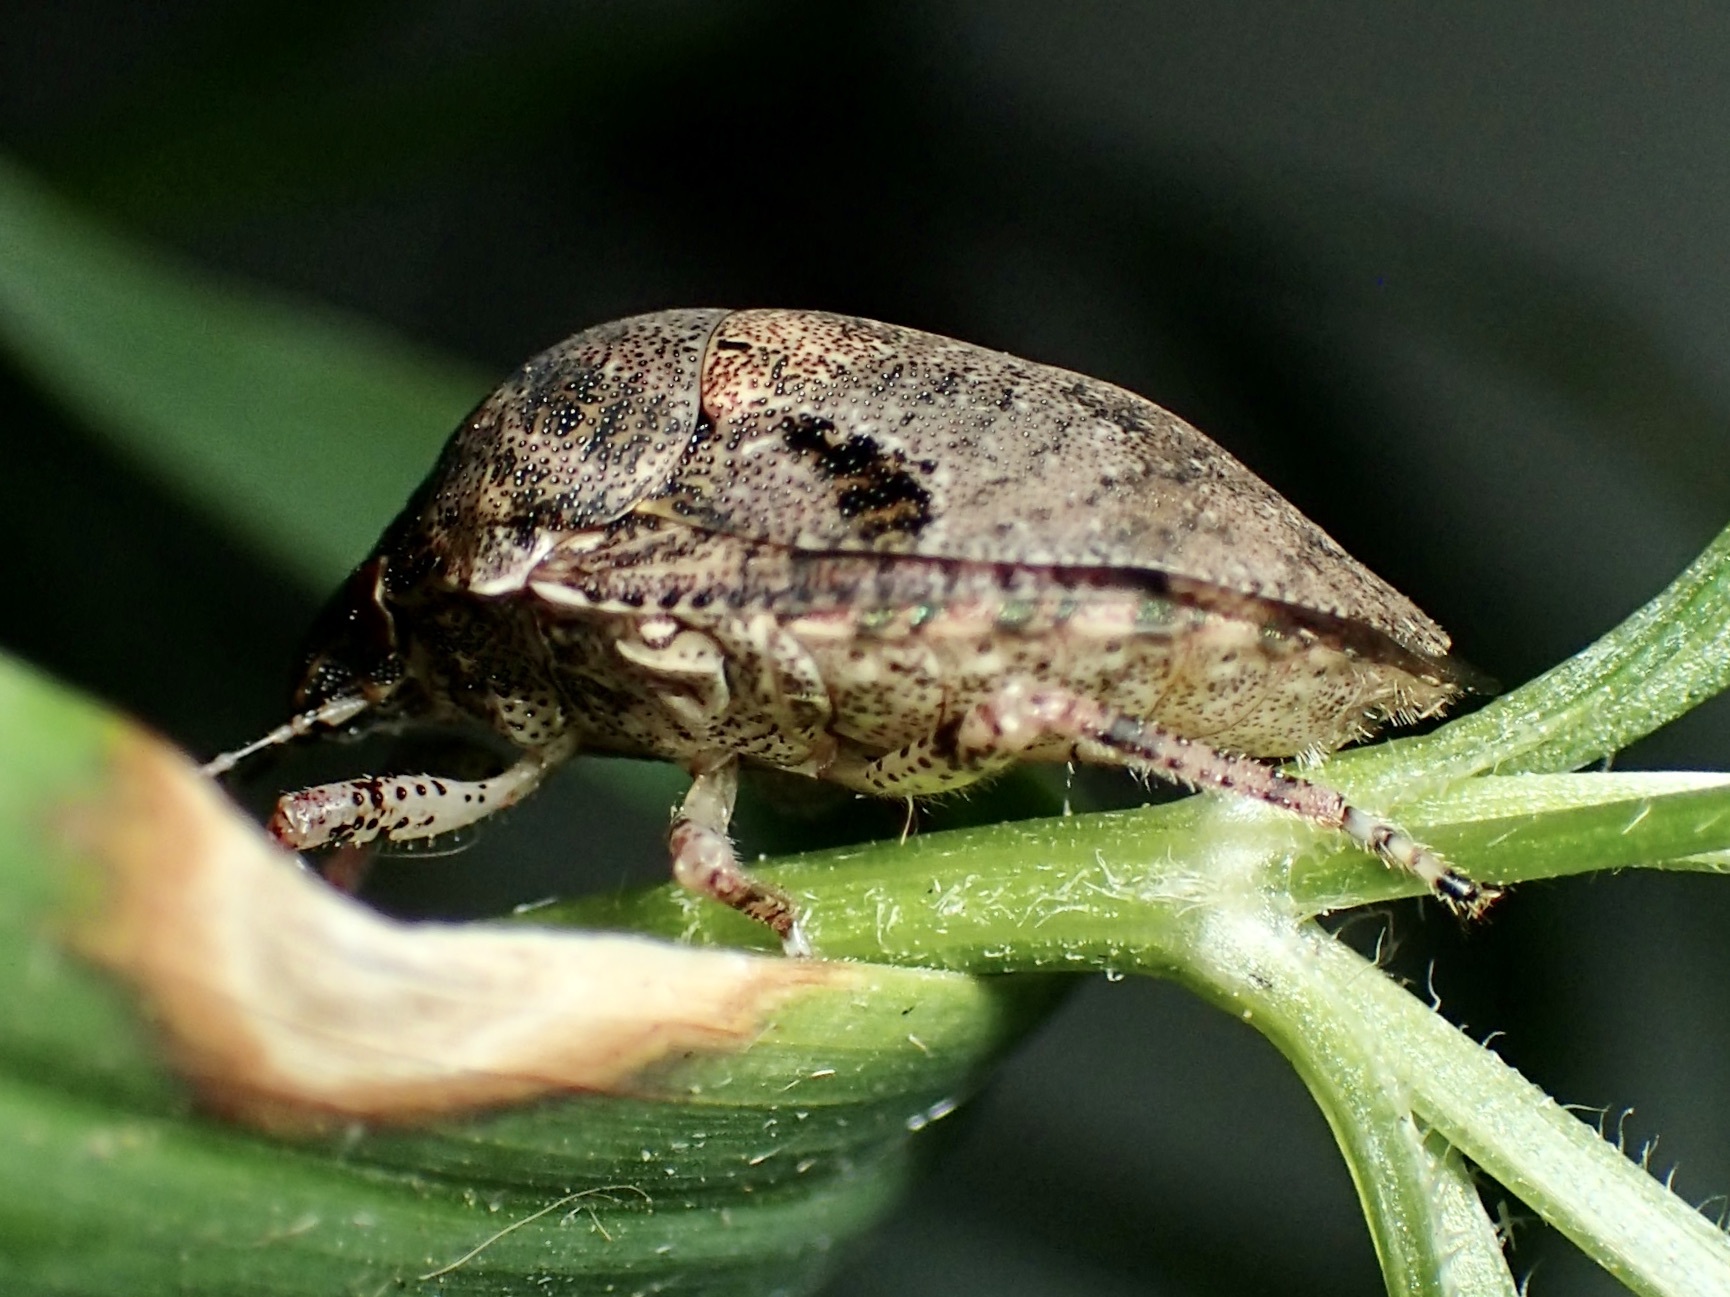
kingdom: Animalia
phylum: Arthropoda
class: Insecta
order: Hemiptera
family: Scutelleridae
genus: Tetyra
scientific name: Tetyra antillarum
